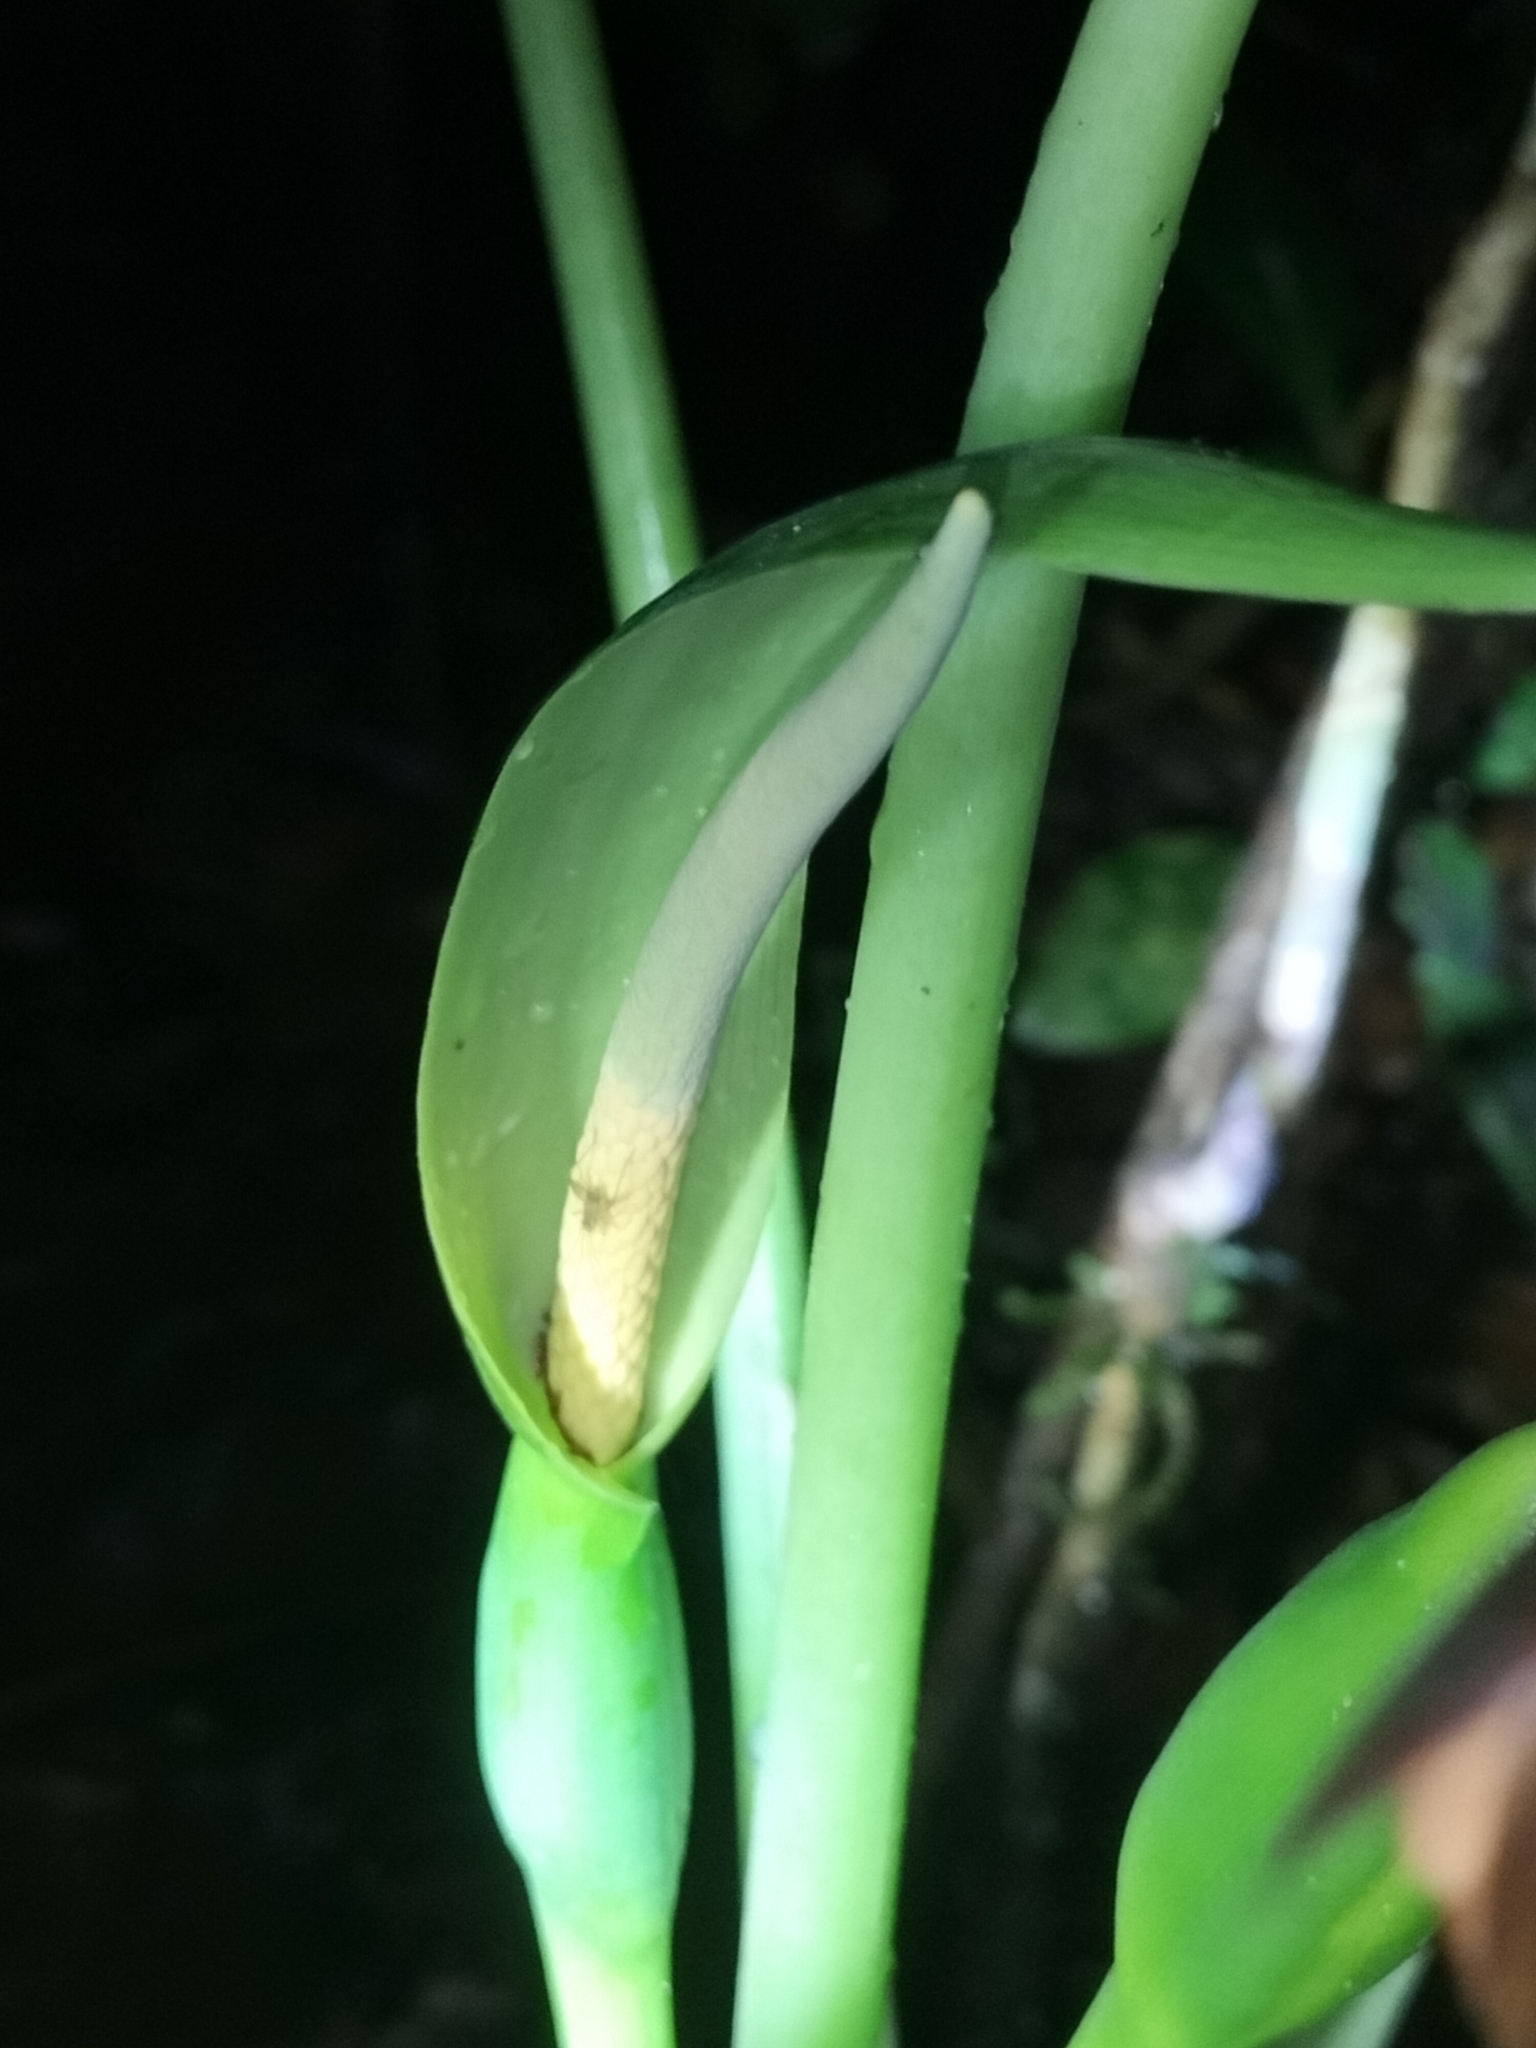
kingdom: Plantae
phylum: Tracheophyta
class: Liliopsida
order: Alismatales
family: Araceae
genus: Alocasia
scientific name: Alocasia brisbanensis
